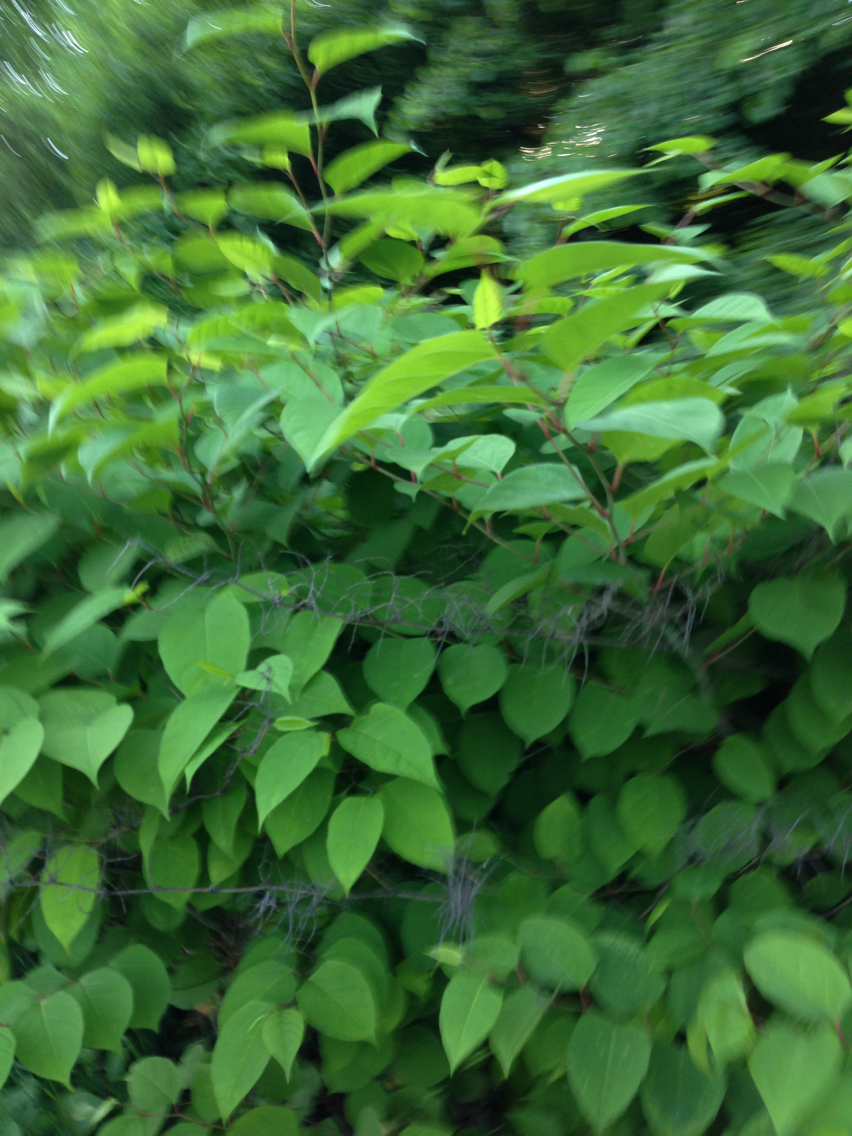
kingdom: Plantae
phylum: Tracheophyta
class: Magnoliopsida
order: Caryophyllales
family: Polygonaceae
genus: Reynoutria
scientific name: Reynoutria japonica
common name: Japanese knotweed
